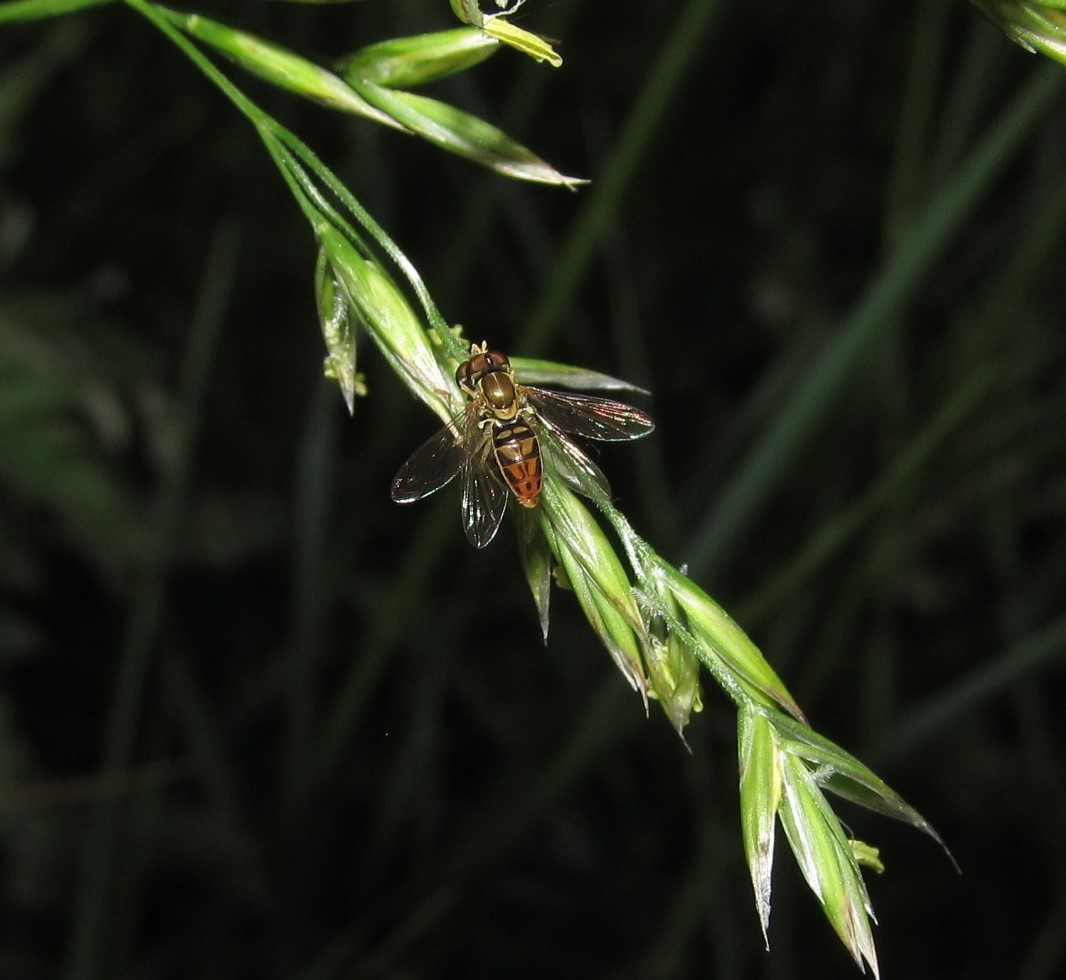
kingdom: Animalia
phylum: Arthropoda
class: Insecta
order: Diptera
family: Syrphidae
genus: Toxomerus
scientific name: Toxomerus marginatus
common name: Syrphid fly
